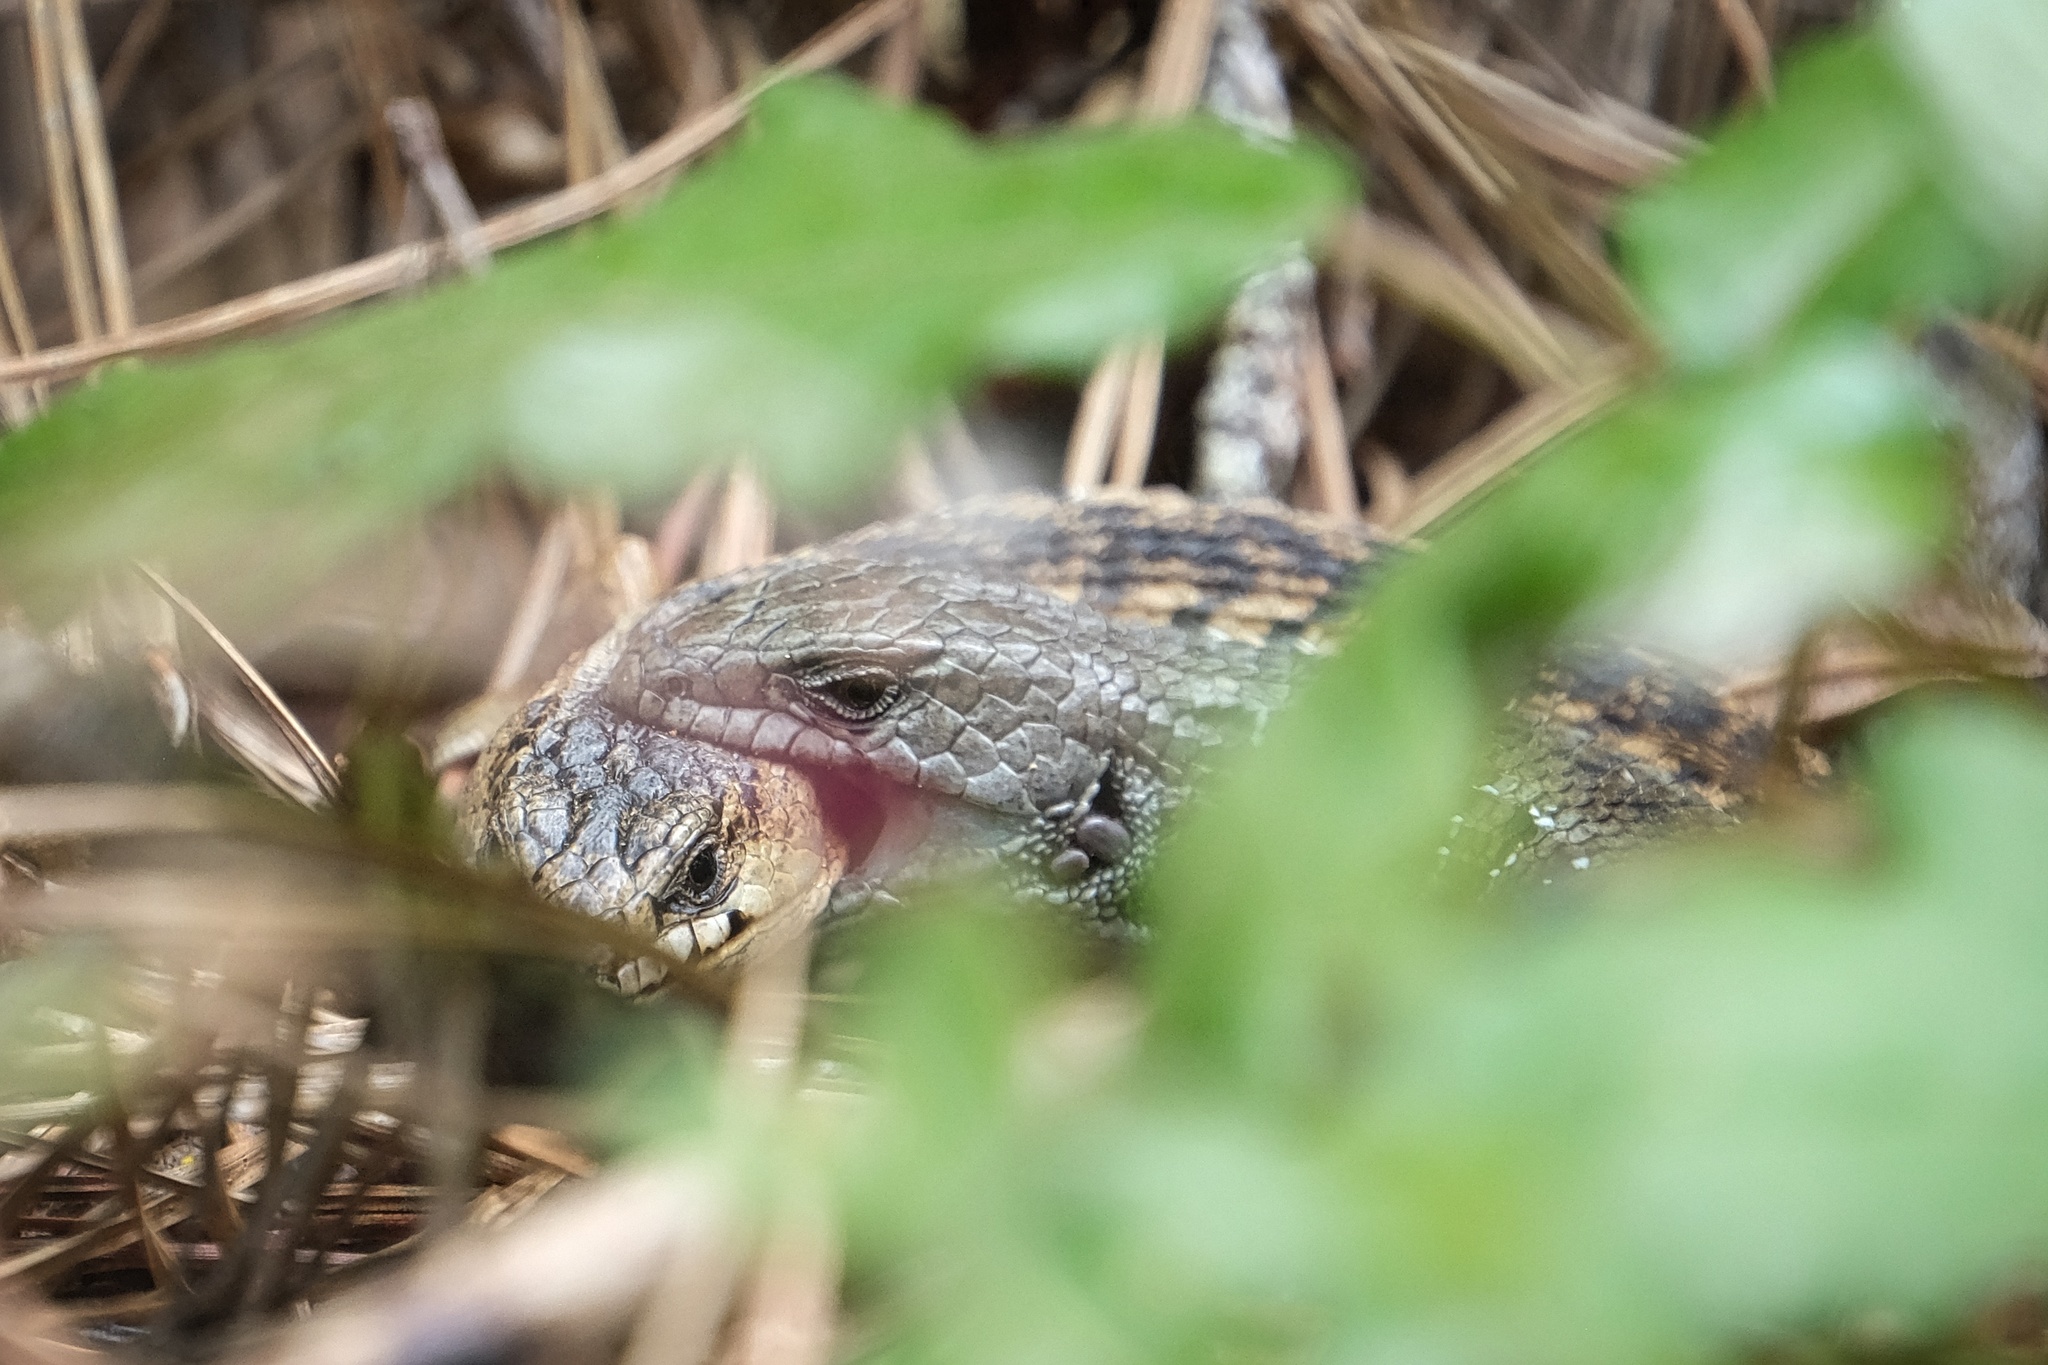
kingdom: Animalia
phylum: Chordata
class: Squamata
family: Anguidae
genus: Elgaria
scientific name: Elgaria coerulea
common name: Northern alligator lizard
